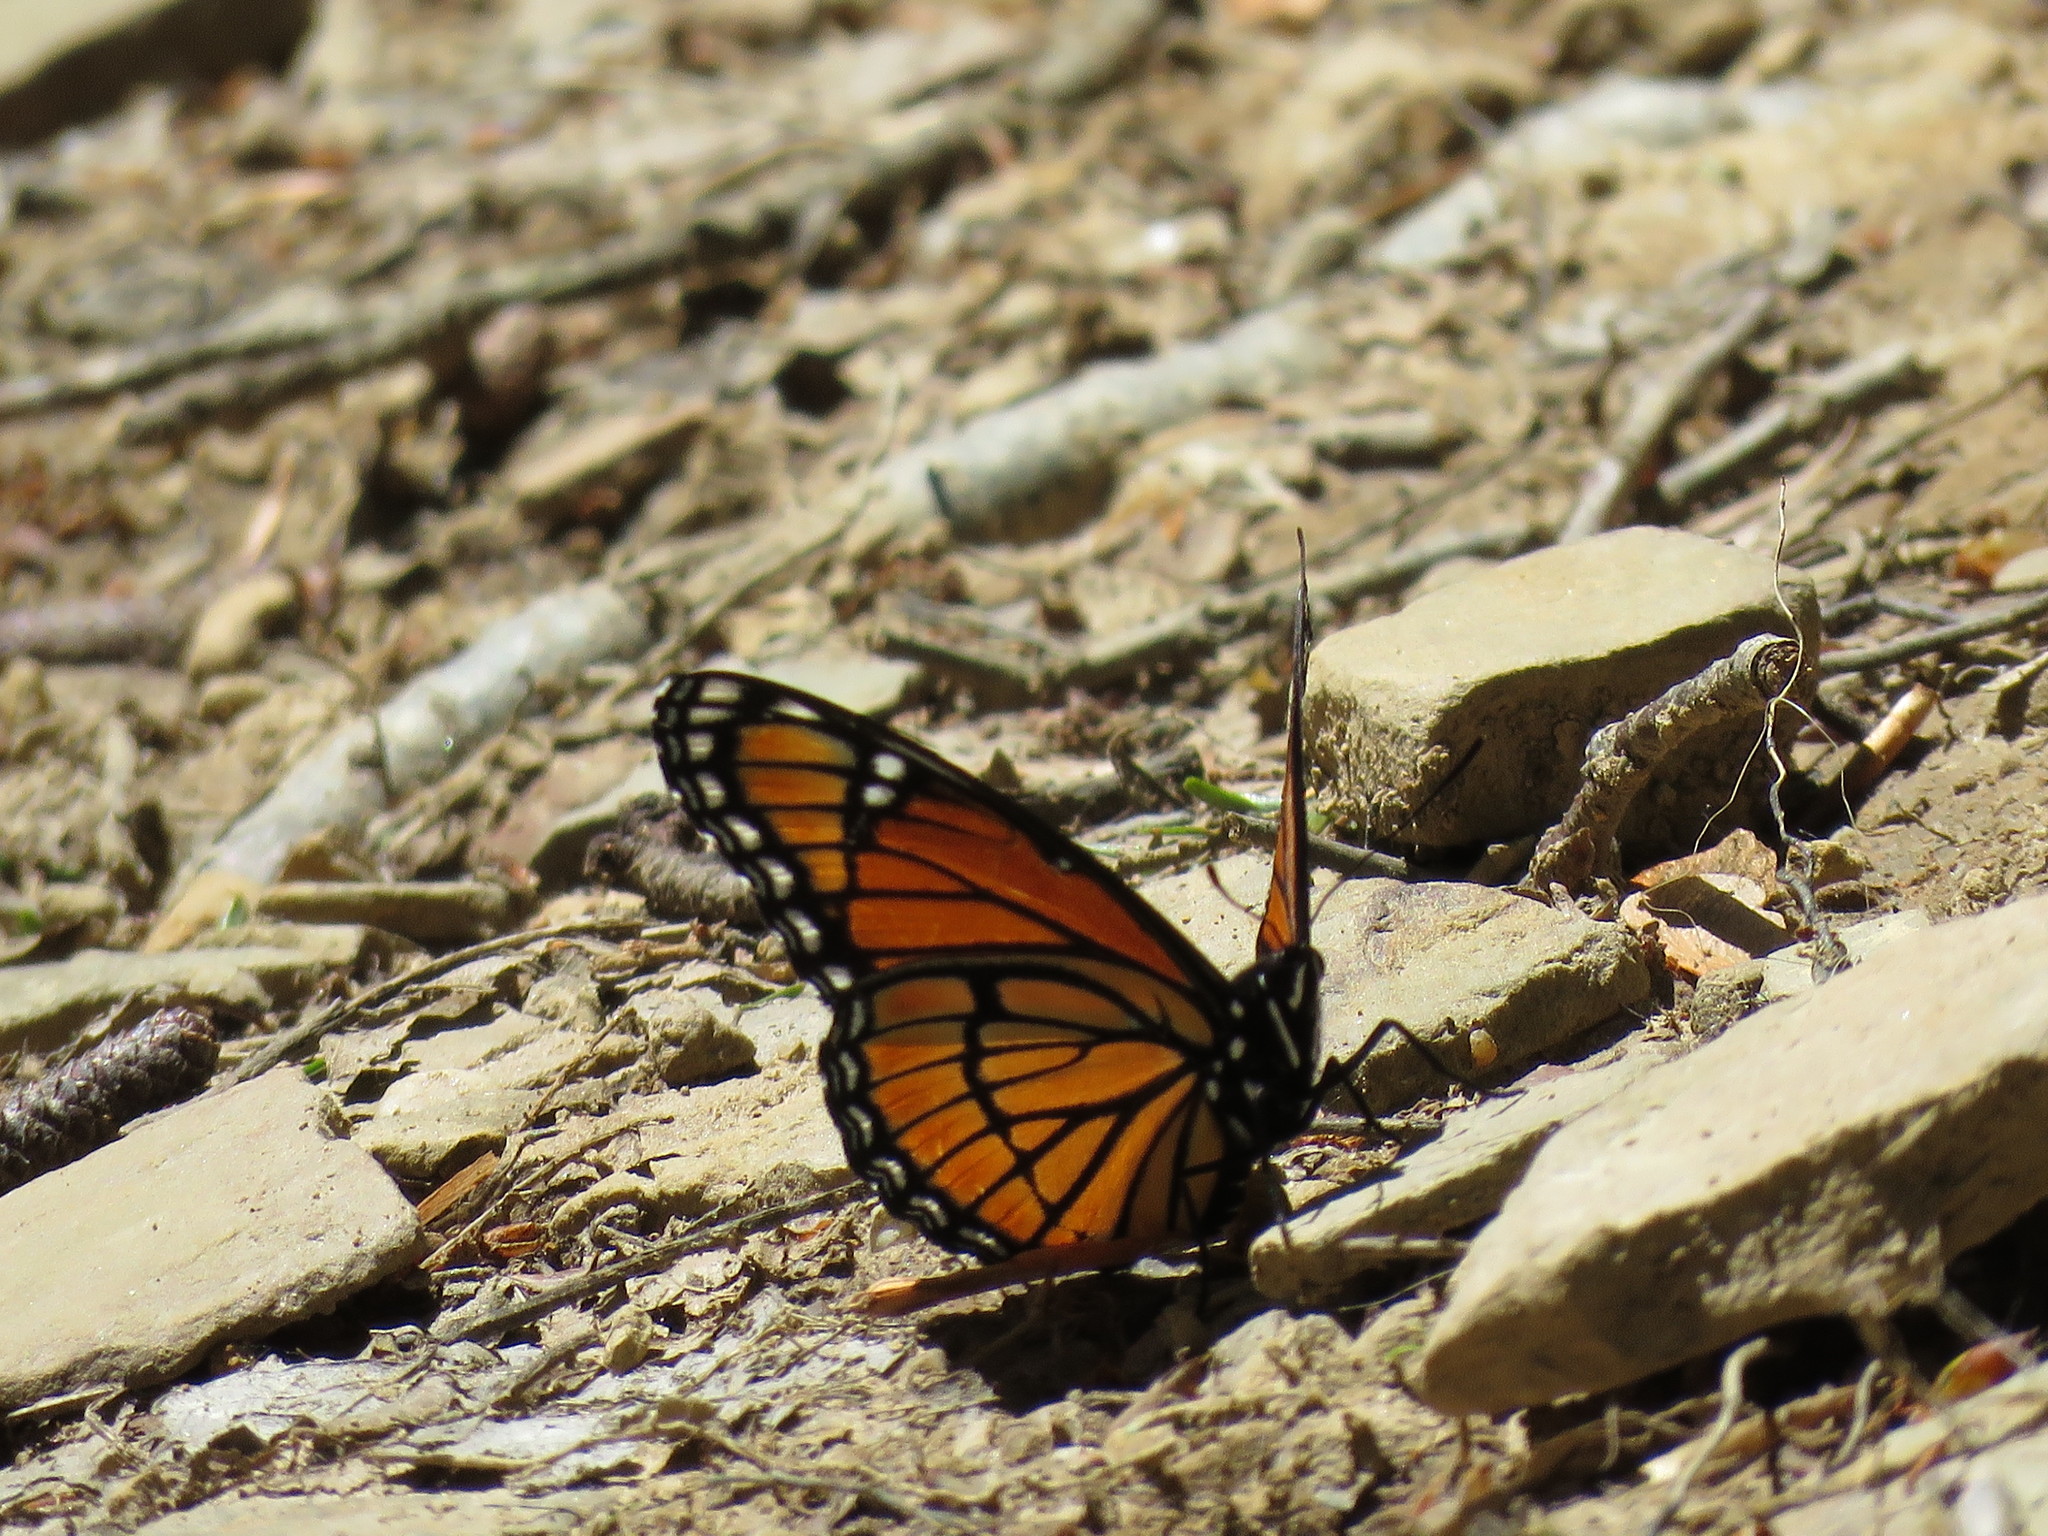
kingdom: Animalia
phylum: Arthropoda
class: Insecta
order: Lepidoptera
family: Nymphalidae
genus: Limenitis
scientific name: Limenitis archippus
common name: Viceroy
